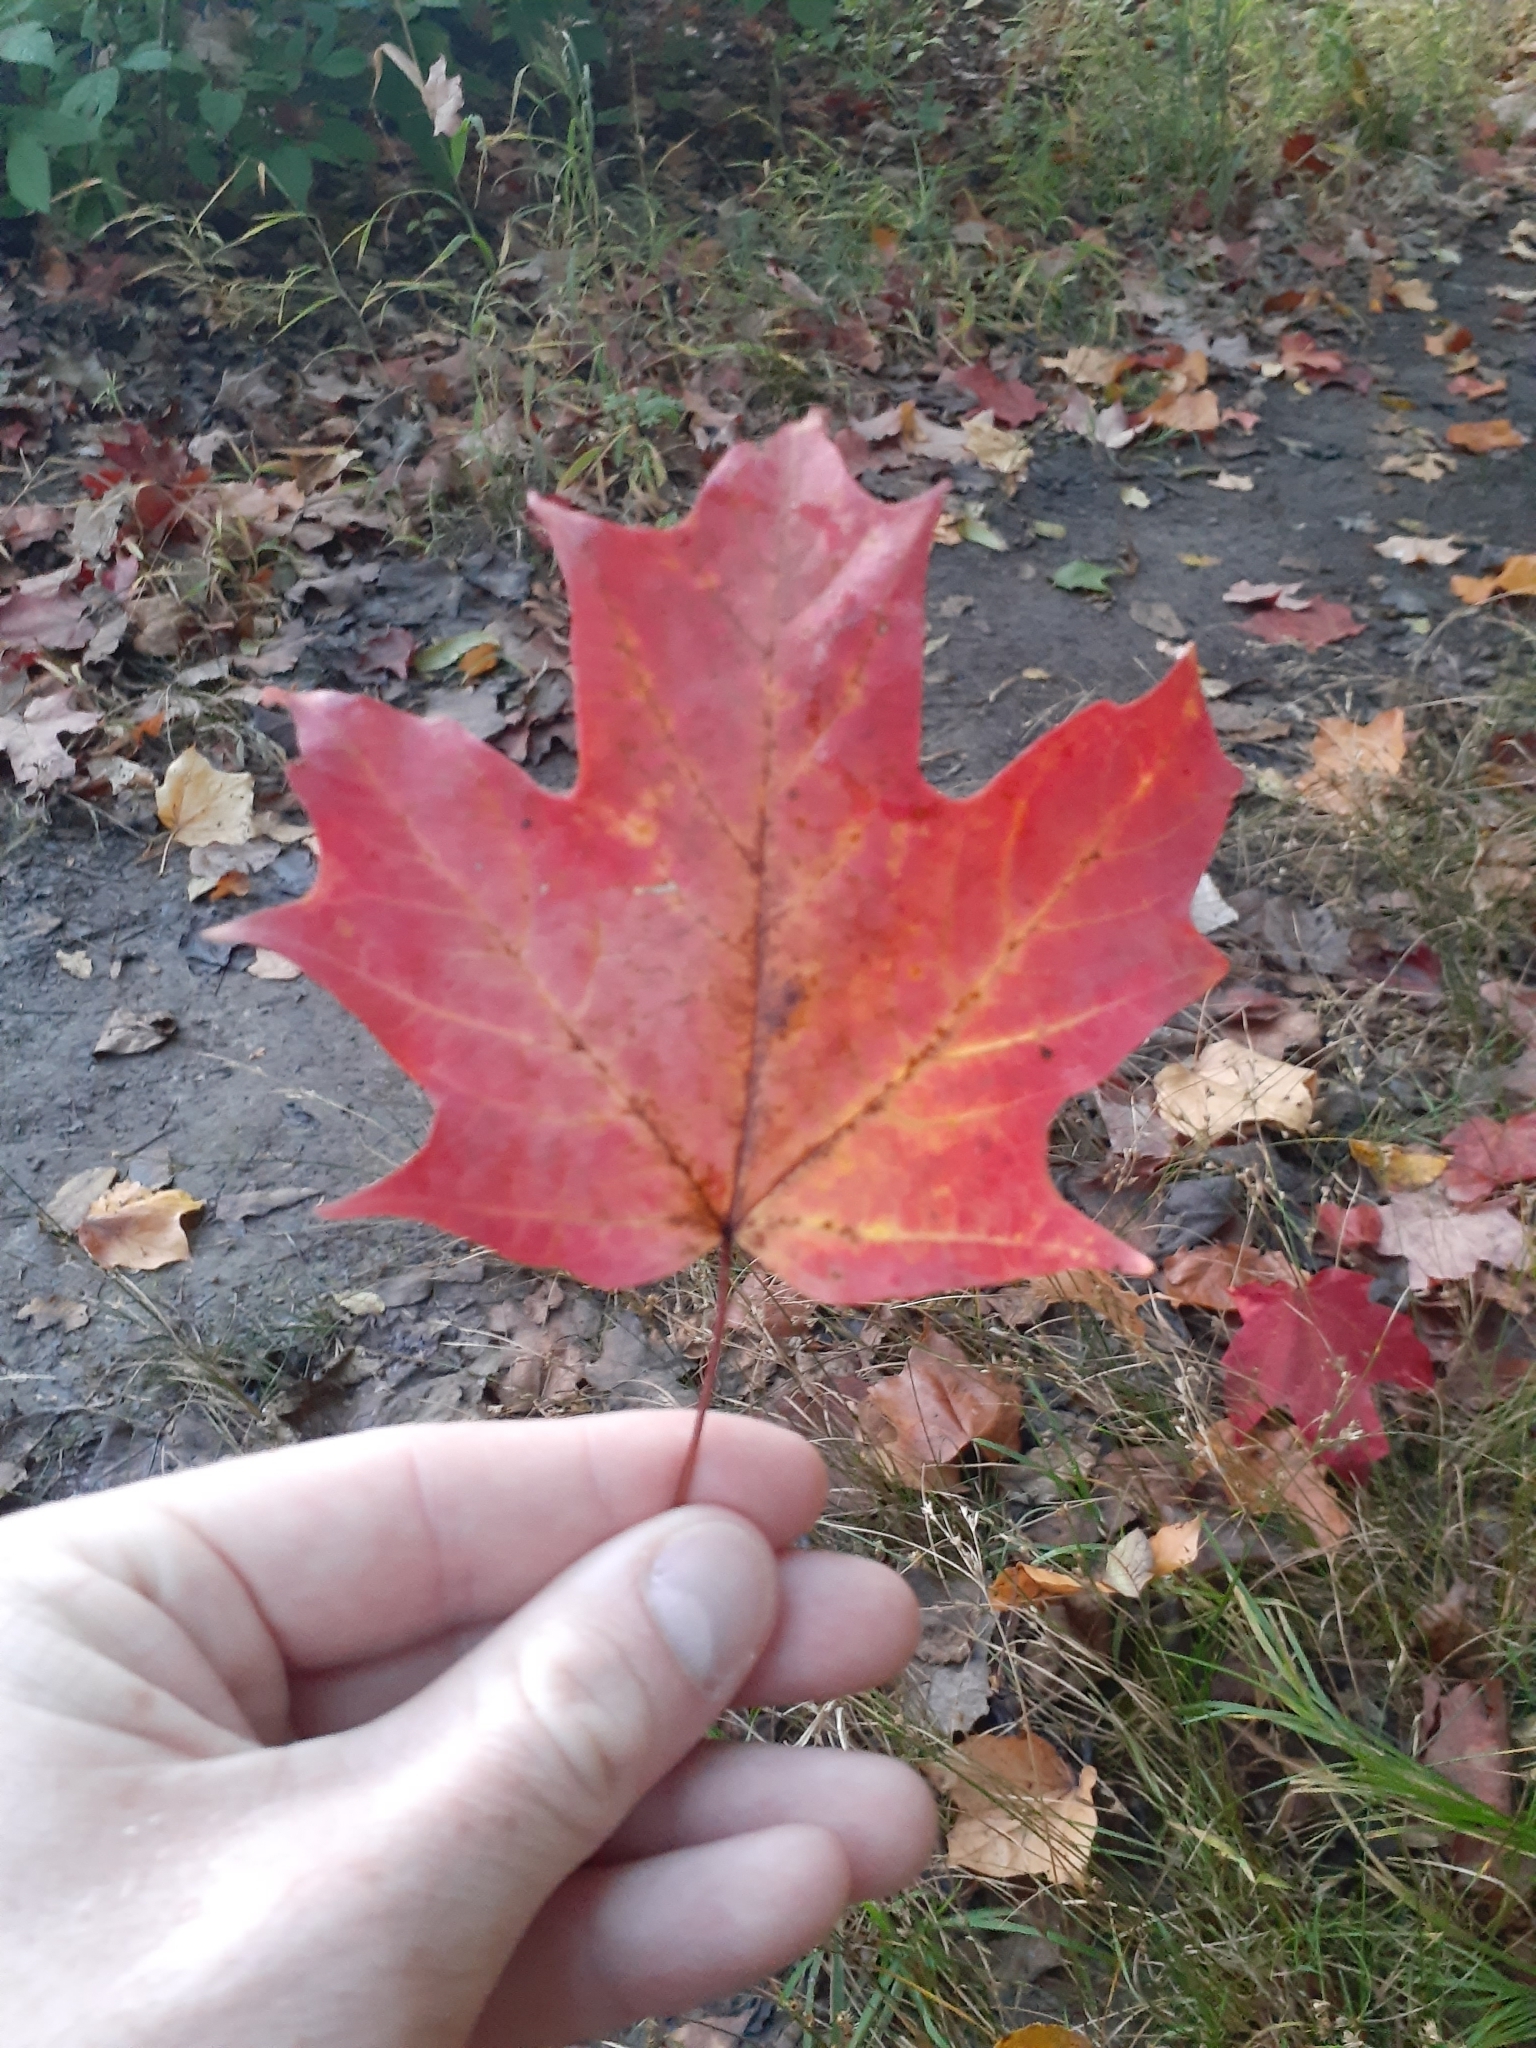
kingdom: Plantae
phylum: Tracheophyta
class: Magnoliopsida
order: Sapindales
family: Sapindaceae
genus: Acer
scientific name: Acer saccharum
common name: Sugar maple
